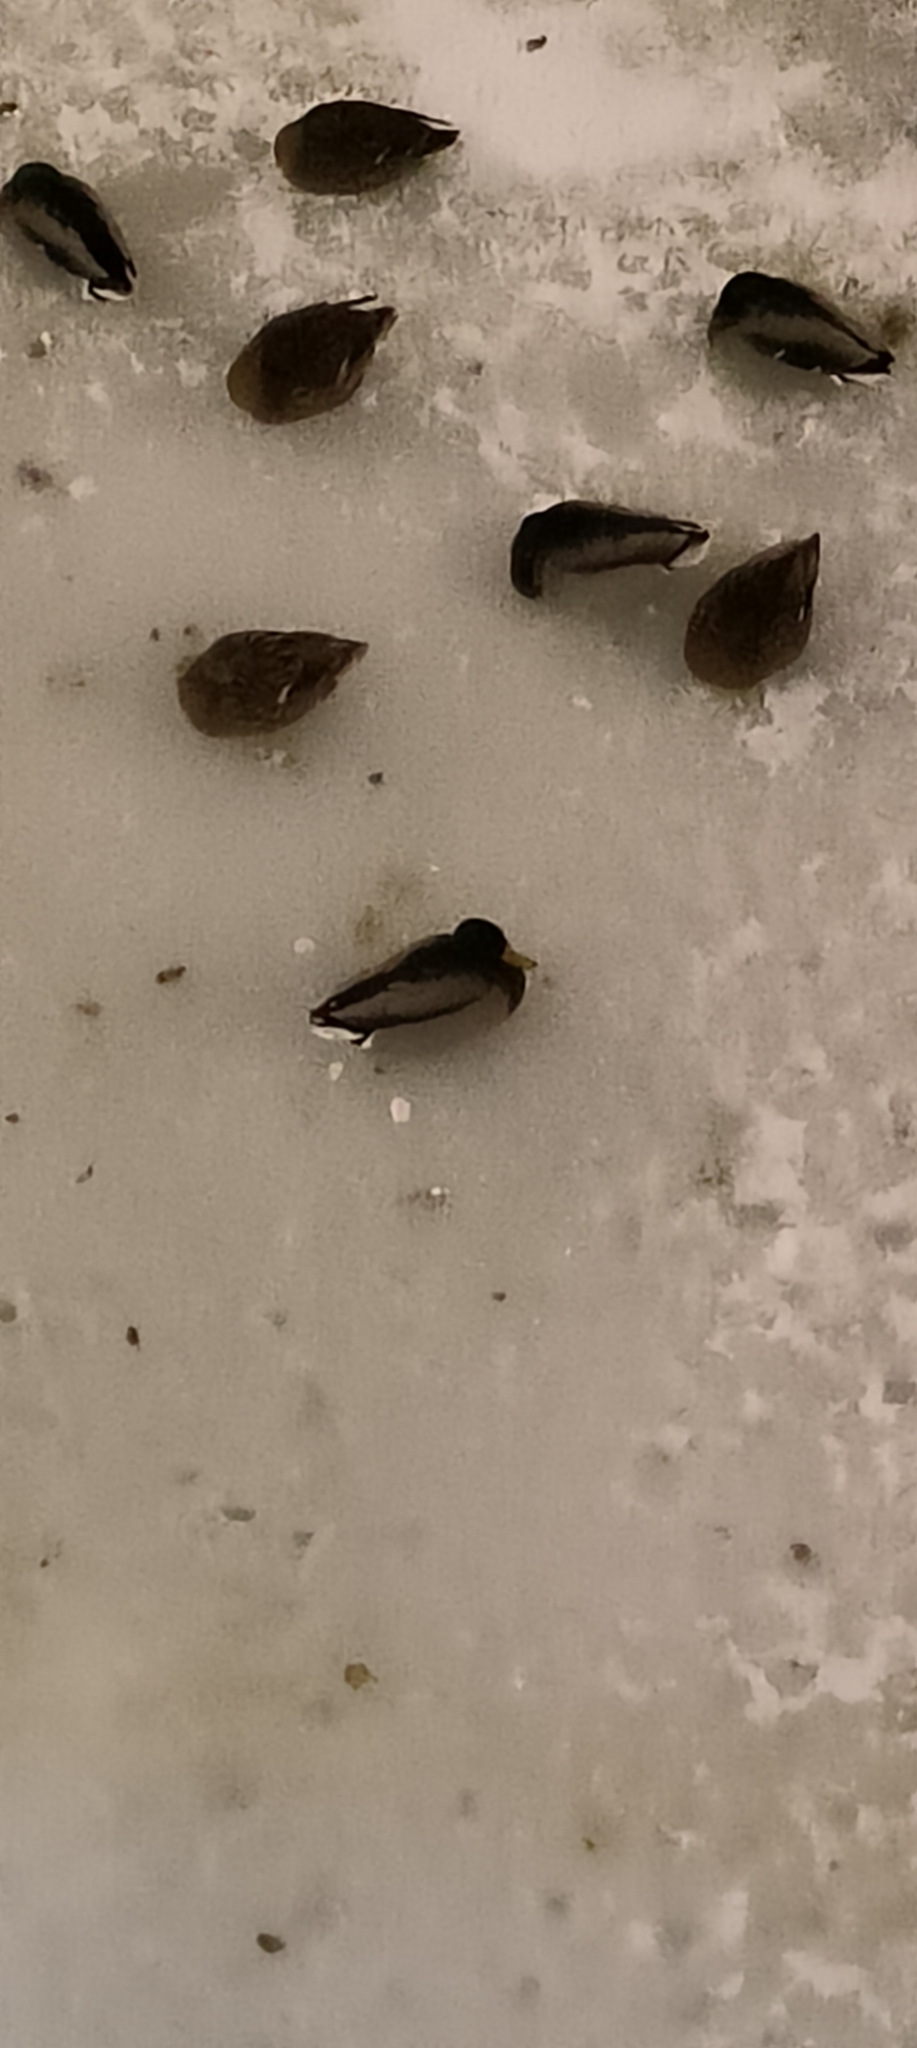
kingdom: Animalia
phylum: Chordata
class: Aves
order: Anseriformes
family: Anatidae
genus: Anas
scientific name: Anas platyrhynchos
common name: Mallard
